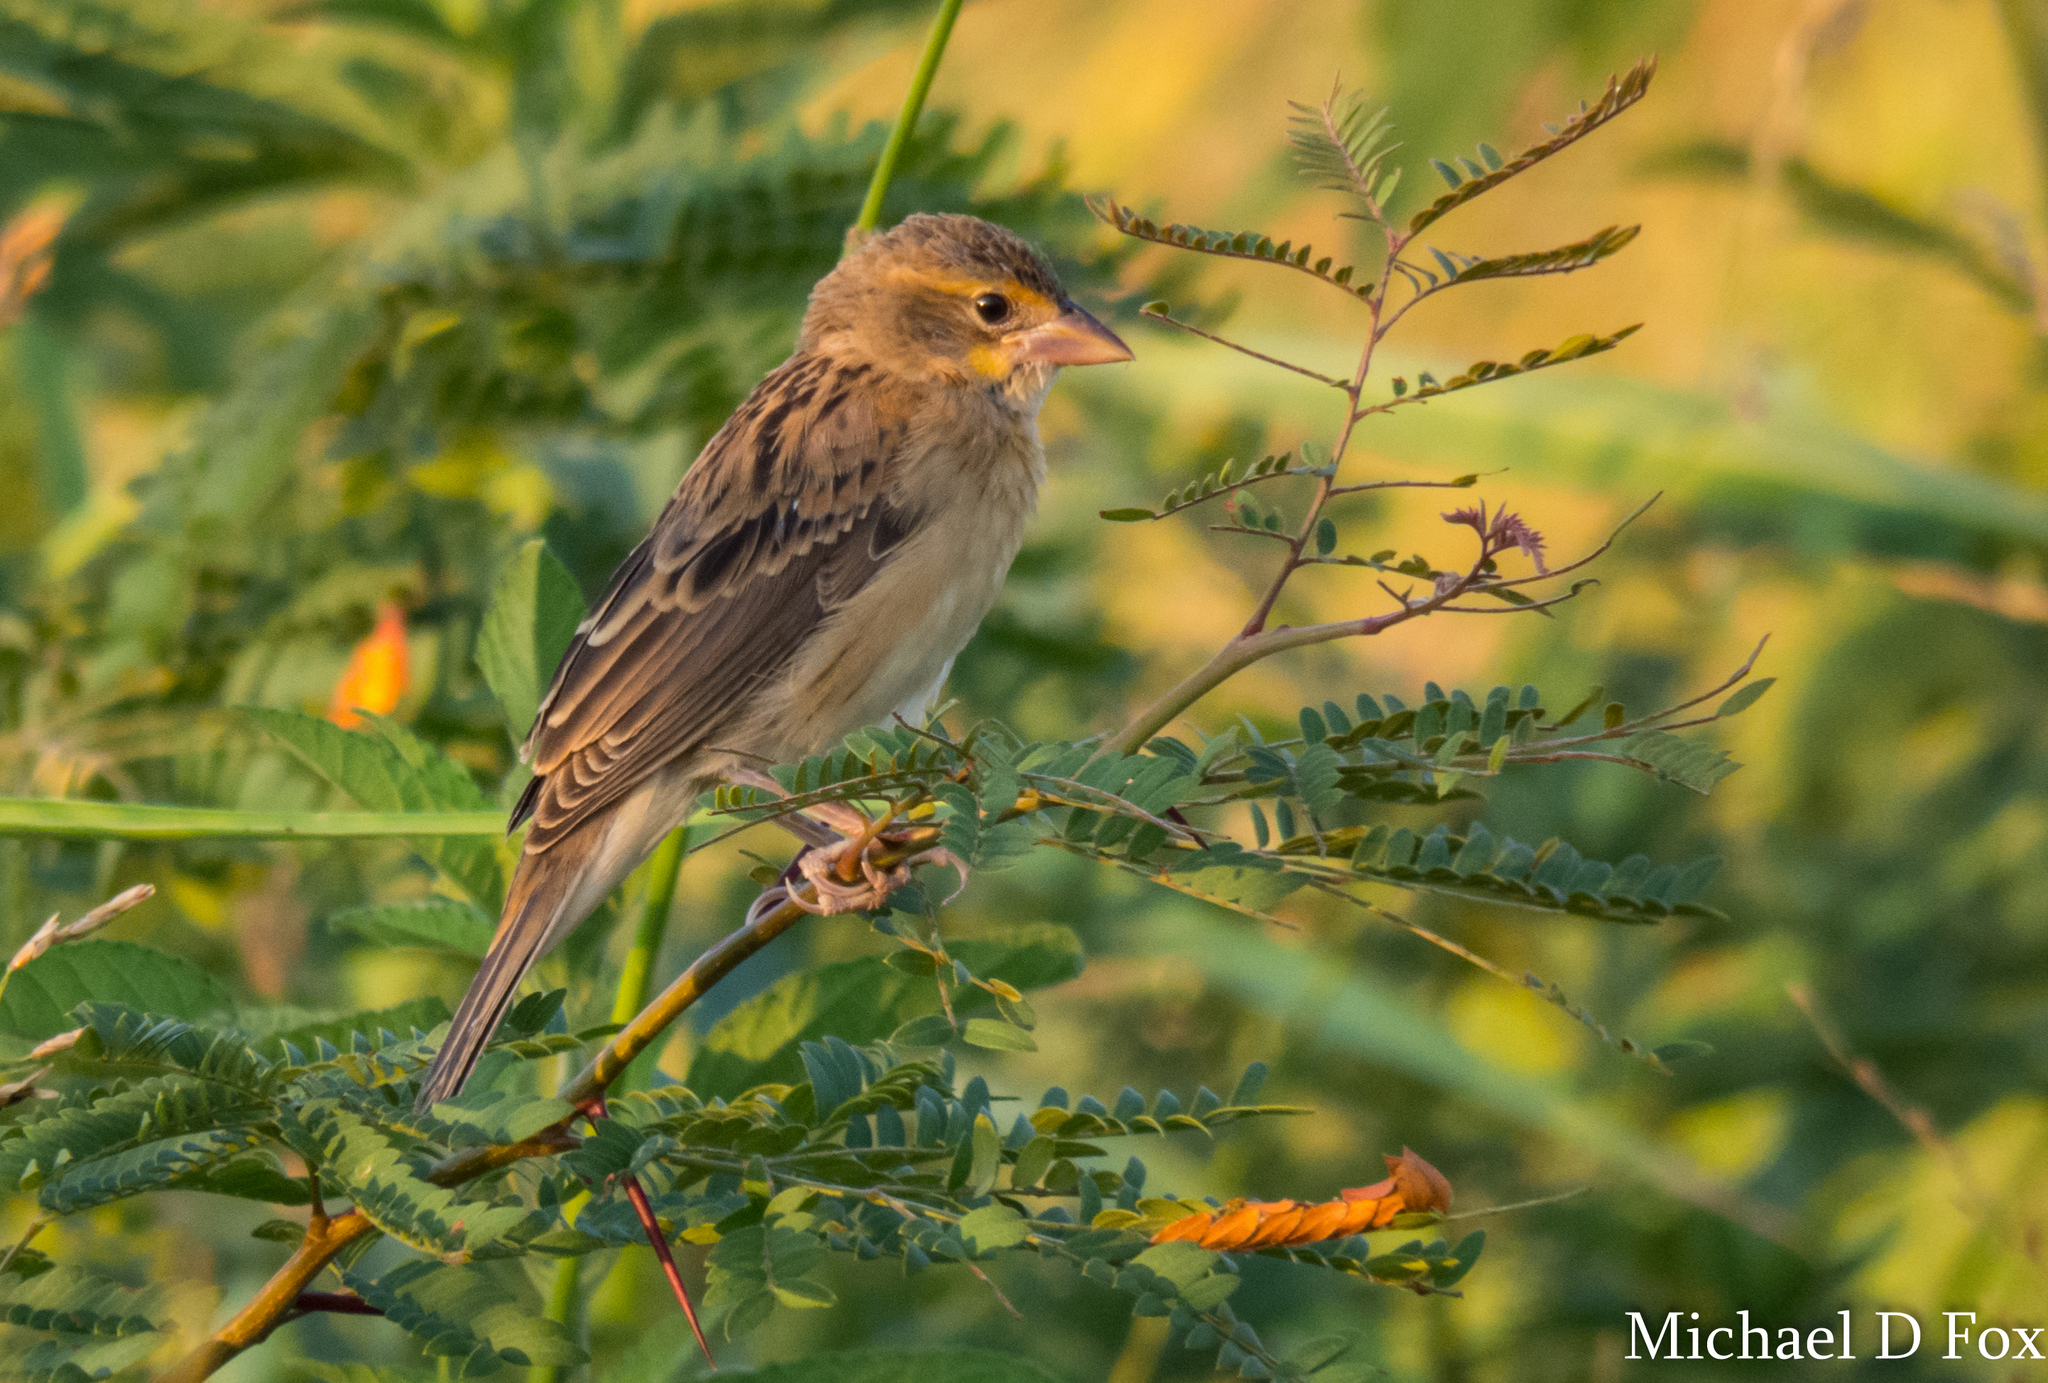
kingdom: Animalia
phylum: Chordata
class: Aves
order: Passeriformes
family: Cardinalidae
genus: Spiza
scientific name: Spiza americana
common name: Dickcissel
